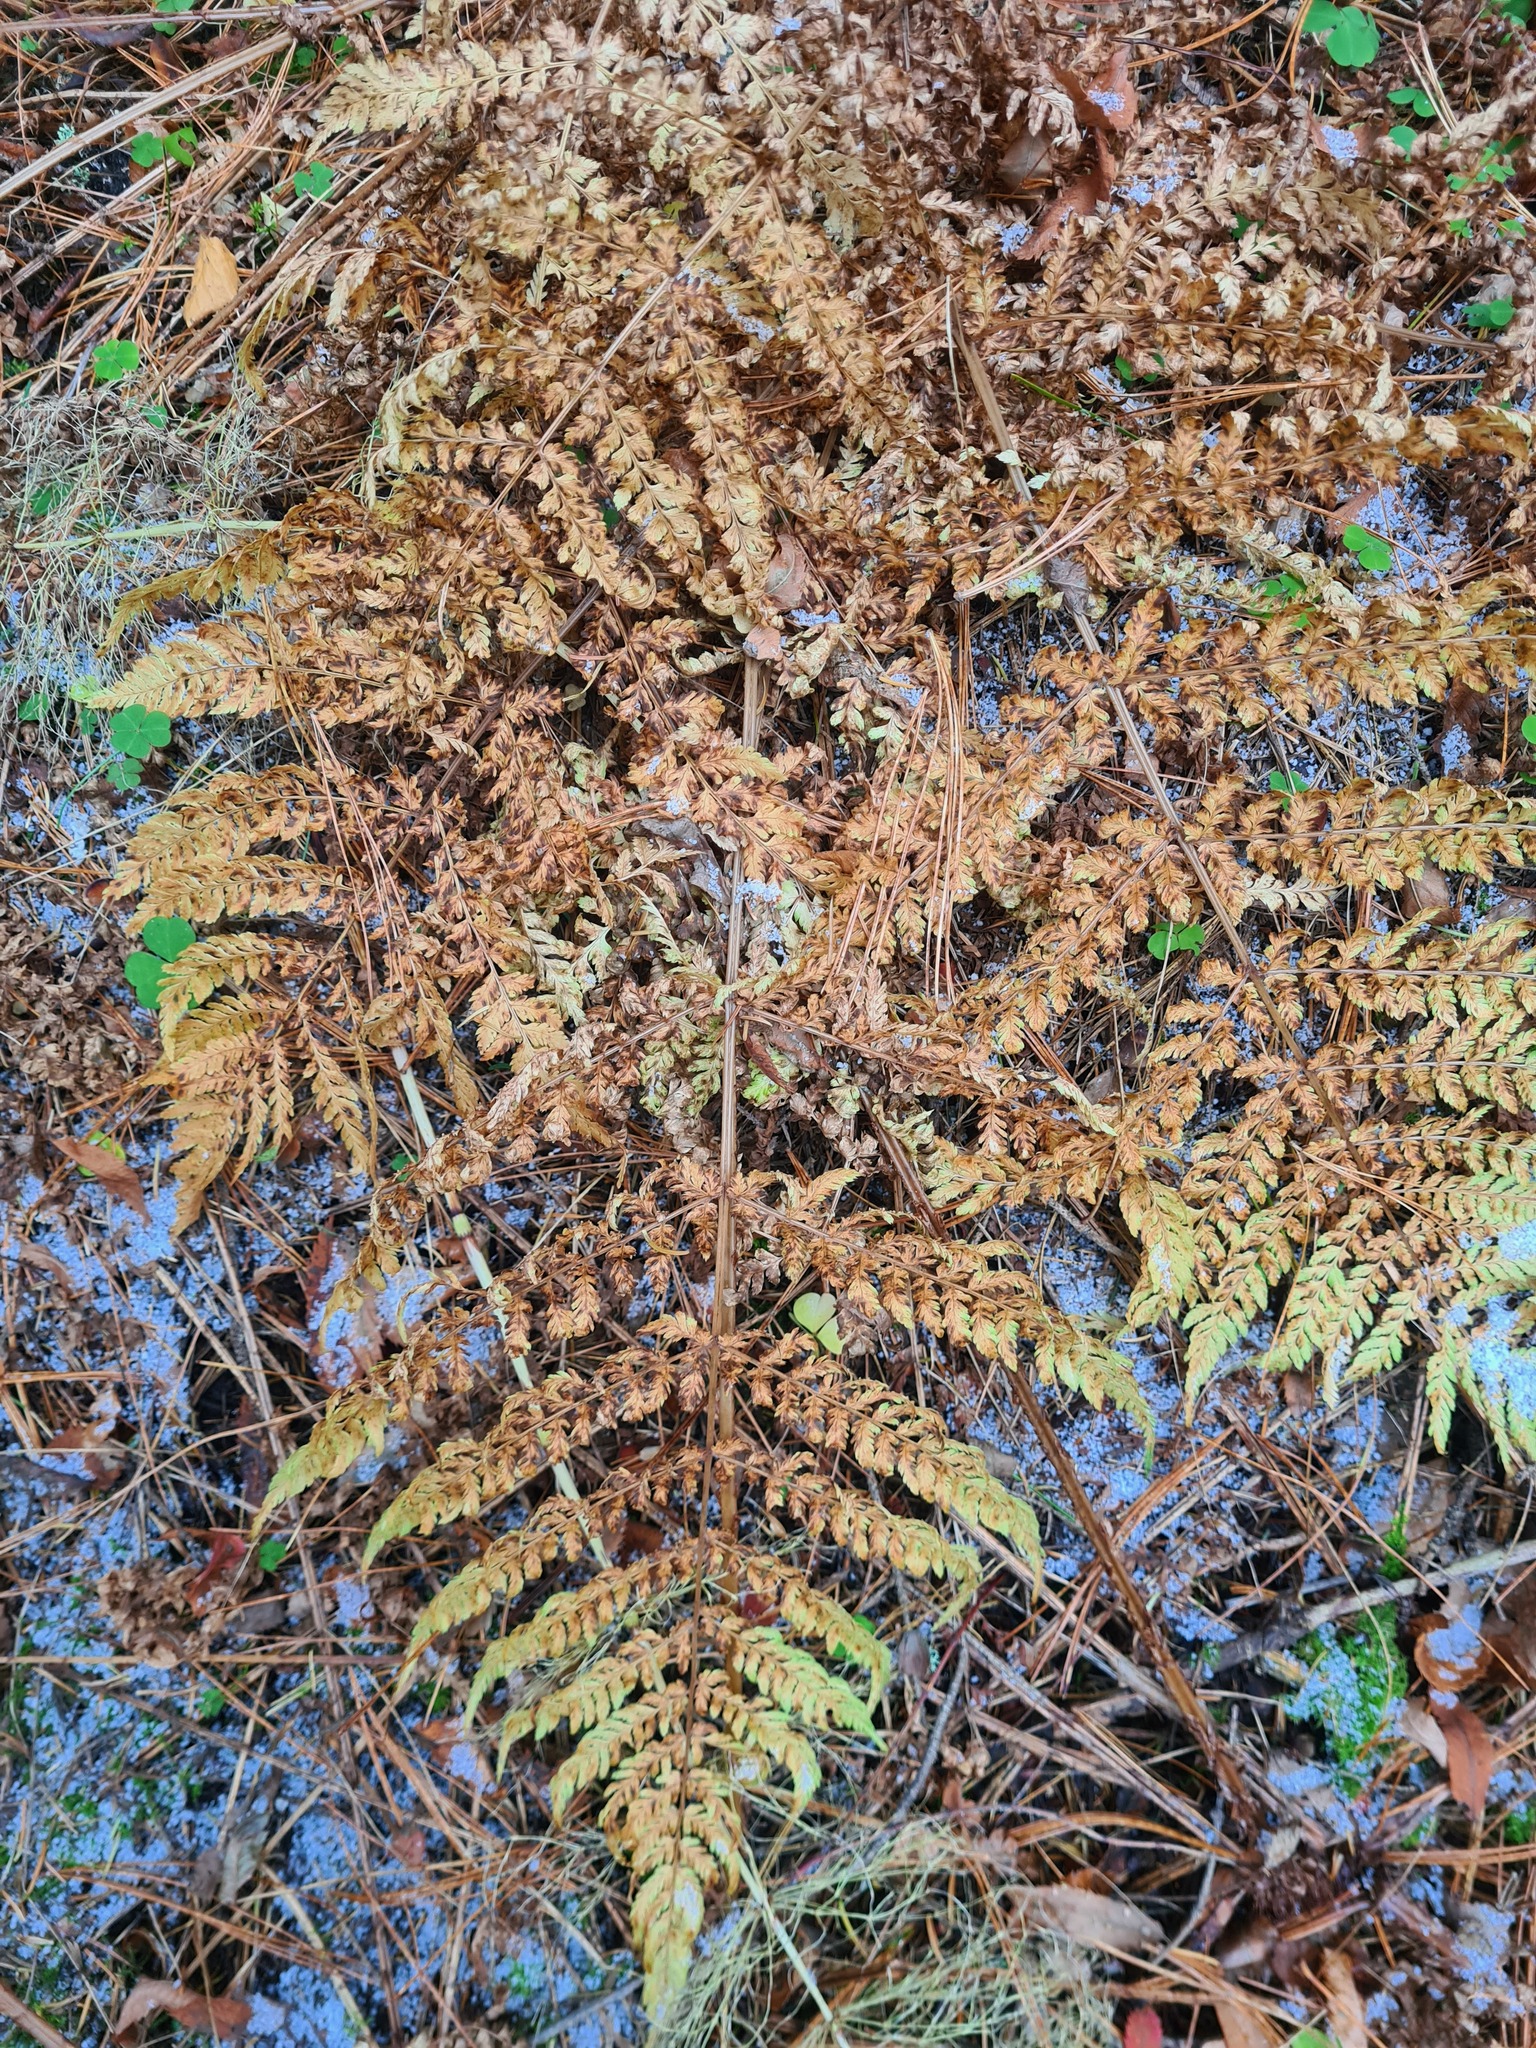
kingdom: Plantae
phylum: Tracheophyta
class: Polypodiopsida
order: Polypodiales
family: Dryopteridaceae
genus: Dryopteris
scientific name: Dryopteris expansa
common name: Northern buckler fern
